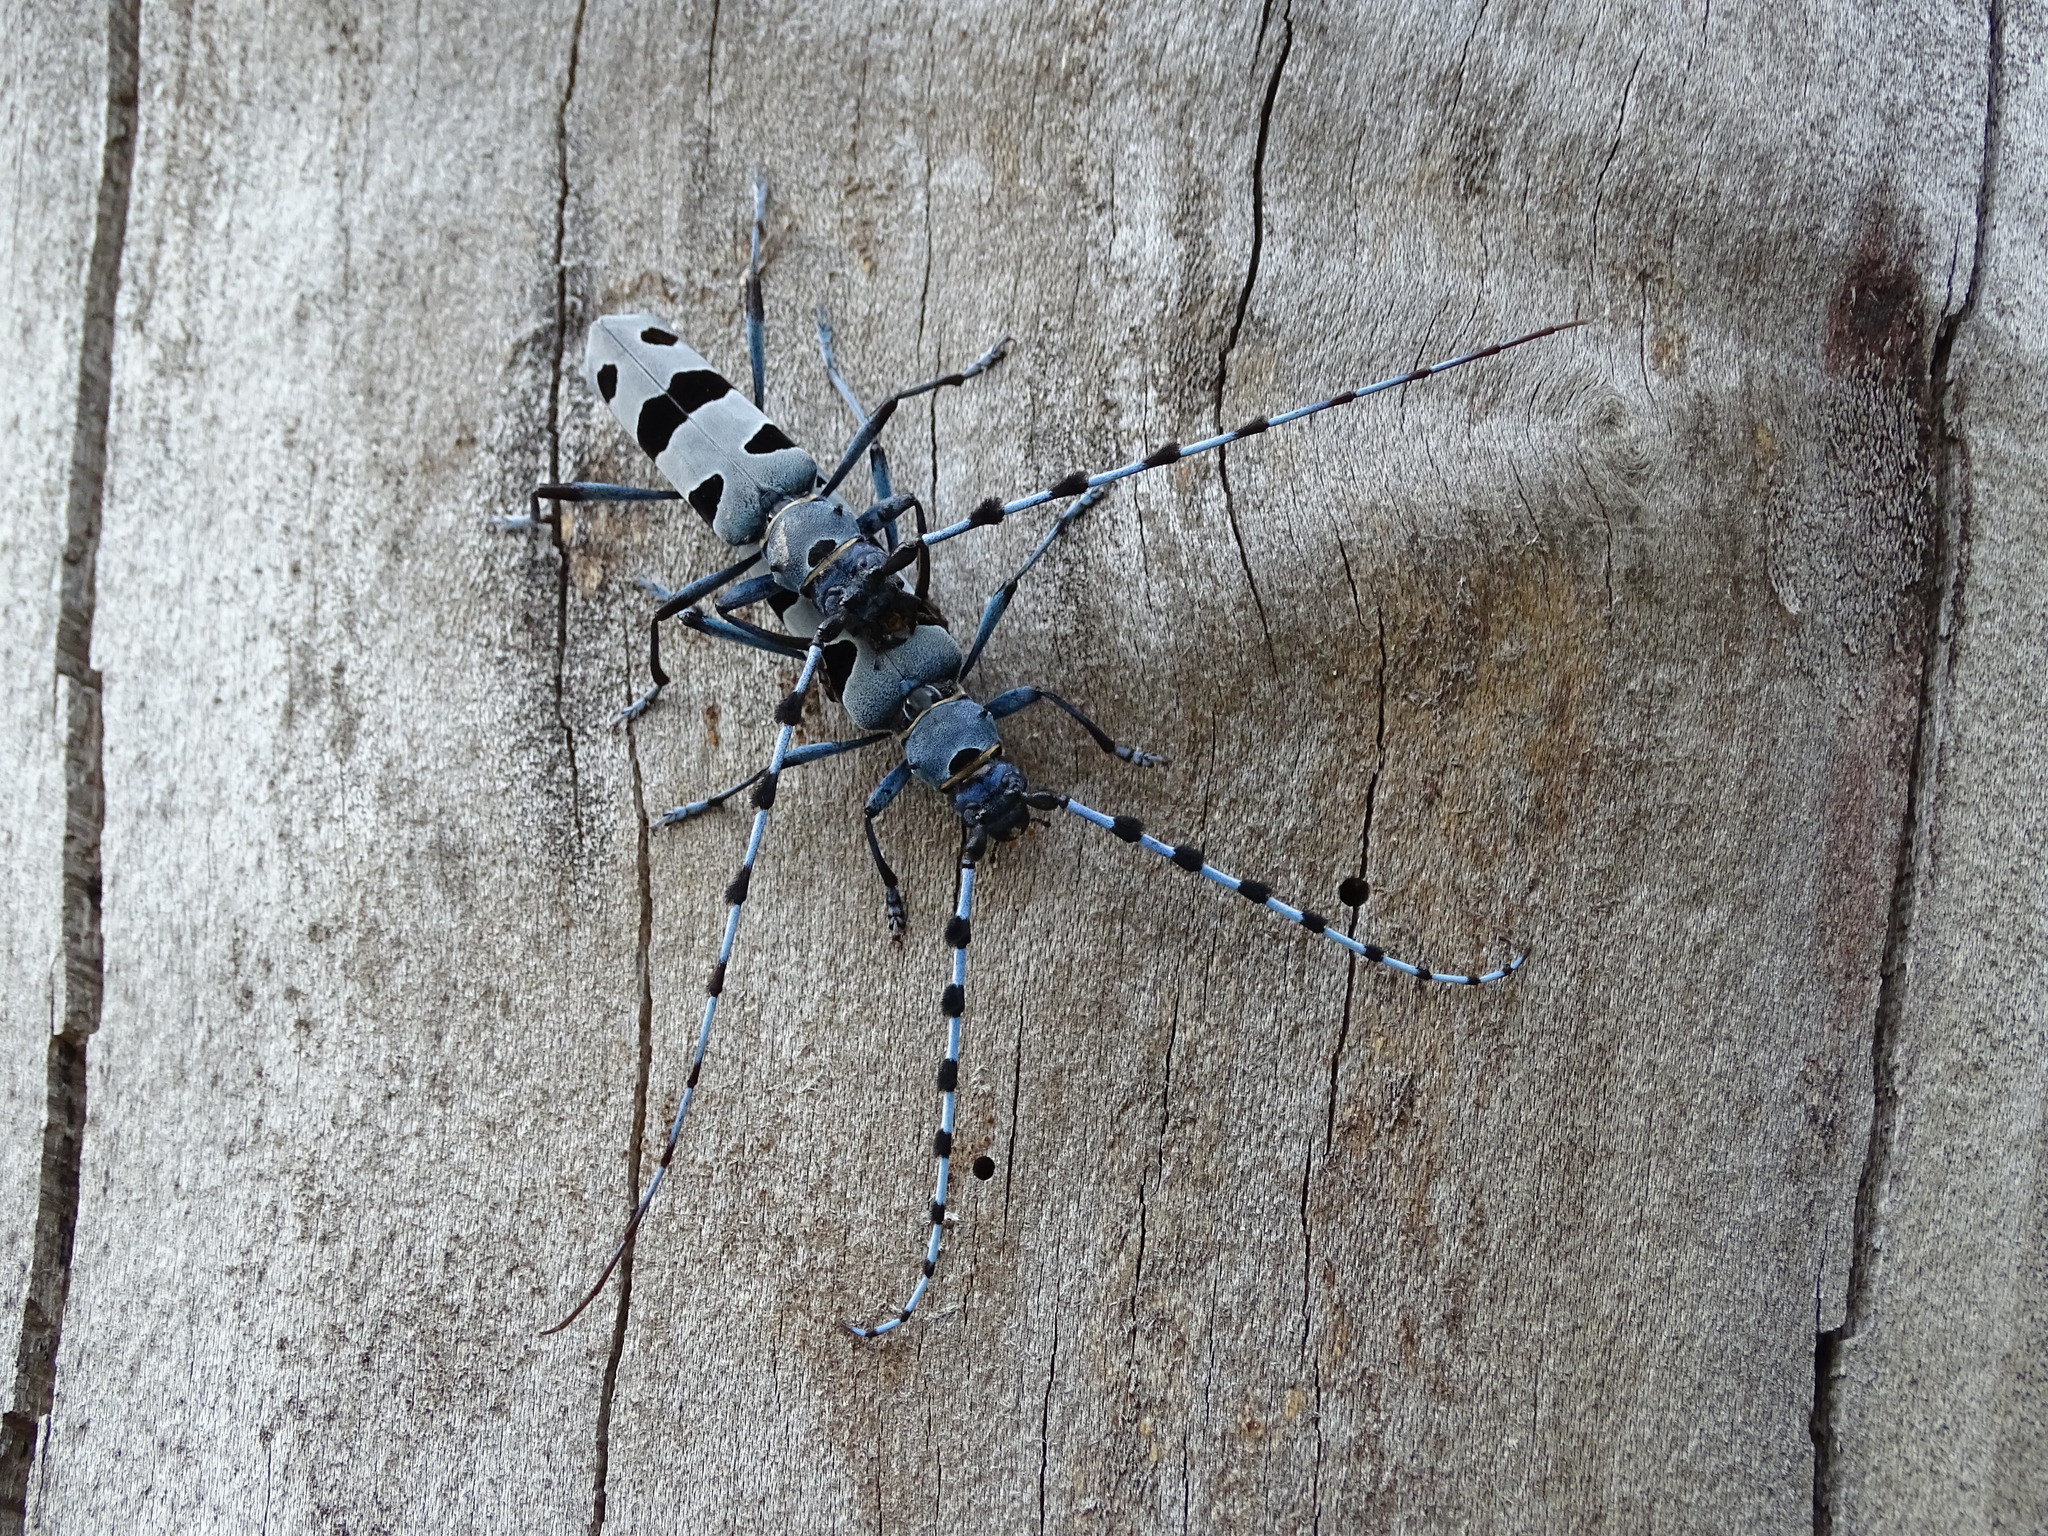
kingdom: Animalia
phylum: Arthropoda
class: Insecta
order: Coleoptera
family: Cerambycidae
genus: Rosalia
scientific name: Rosalia alpina
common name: Rosalia longicorn
